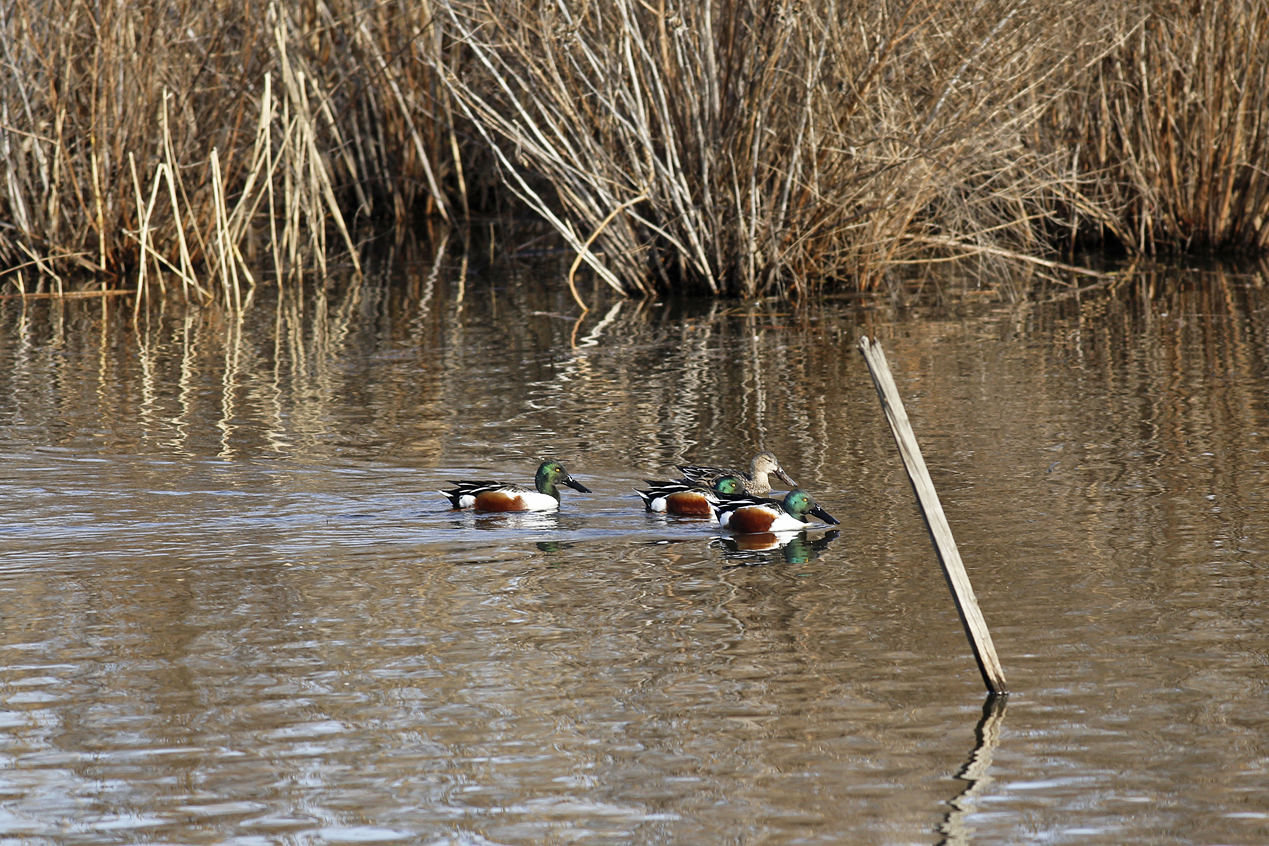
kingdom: Animalia
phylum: Chordata
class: Aves
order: Anseriformes
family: Anatidae
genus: Spatula
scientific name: Spatula clypeata
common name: Northern shoveler
